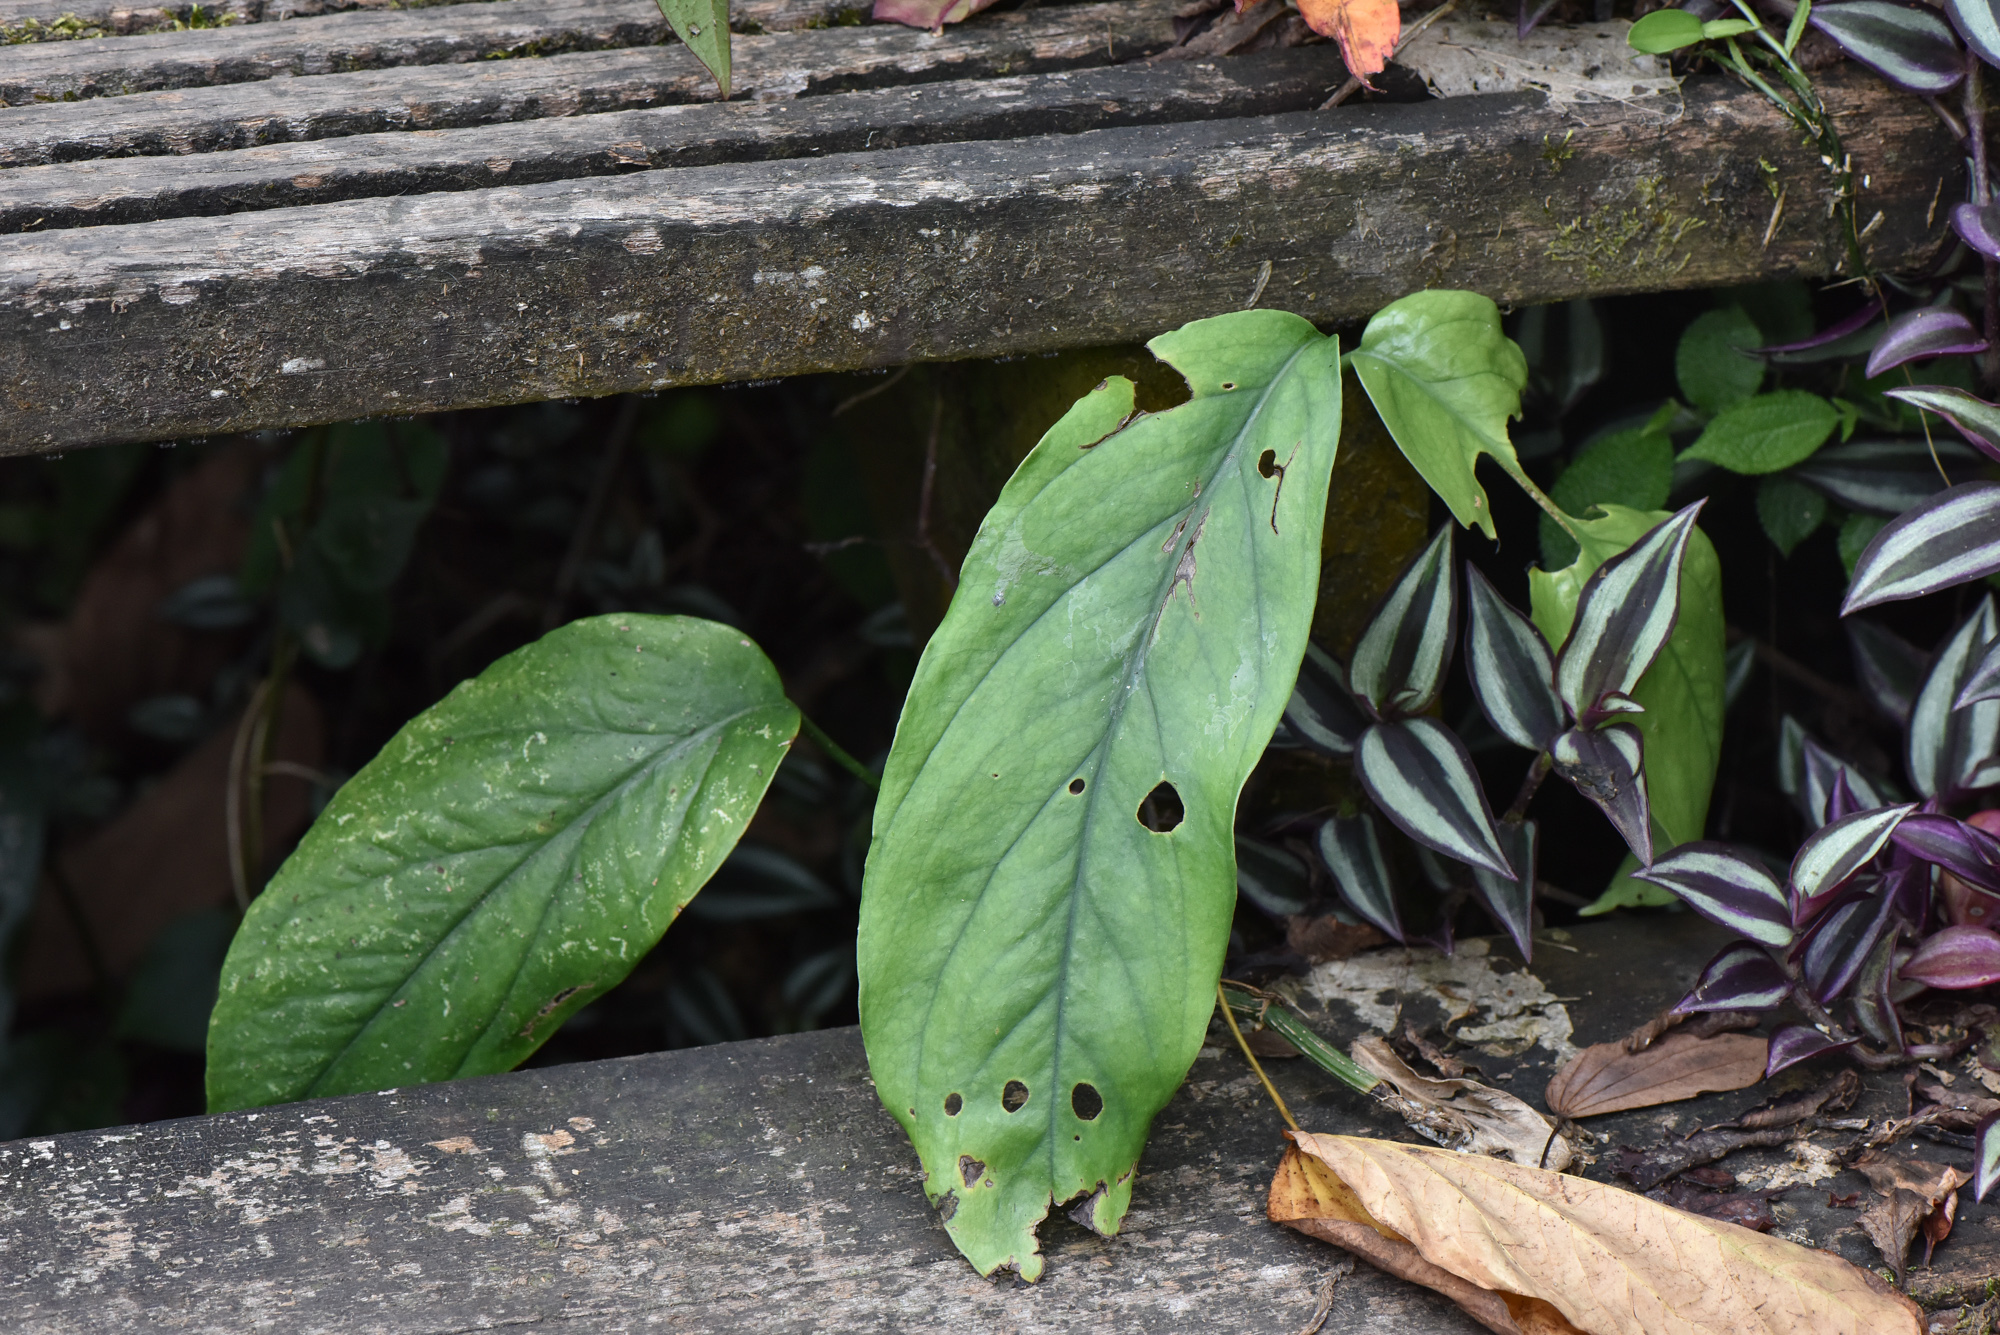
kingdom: Plantae
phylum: Tracheophyta
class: Liliopsida
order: Alismatales
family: Araceae
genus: Epipremnum
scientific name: Epipremnum pinnatum
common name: Centipede tongavine
